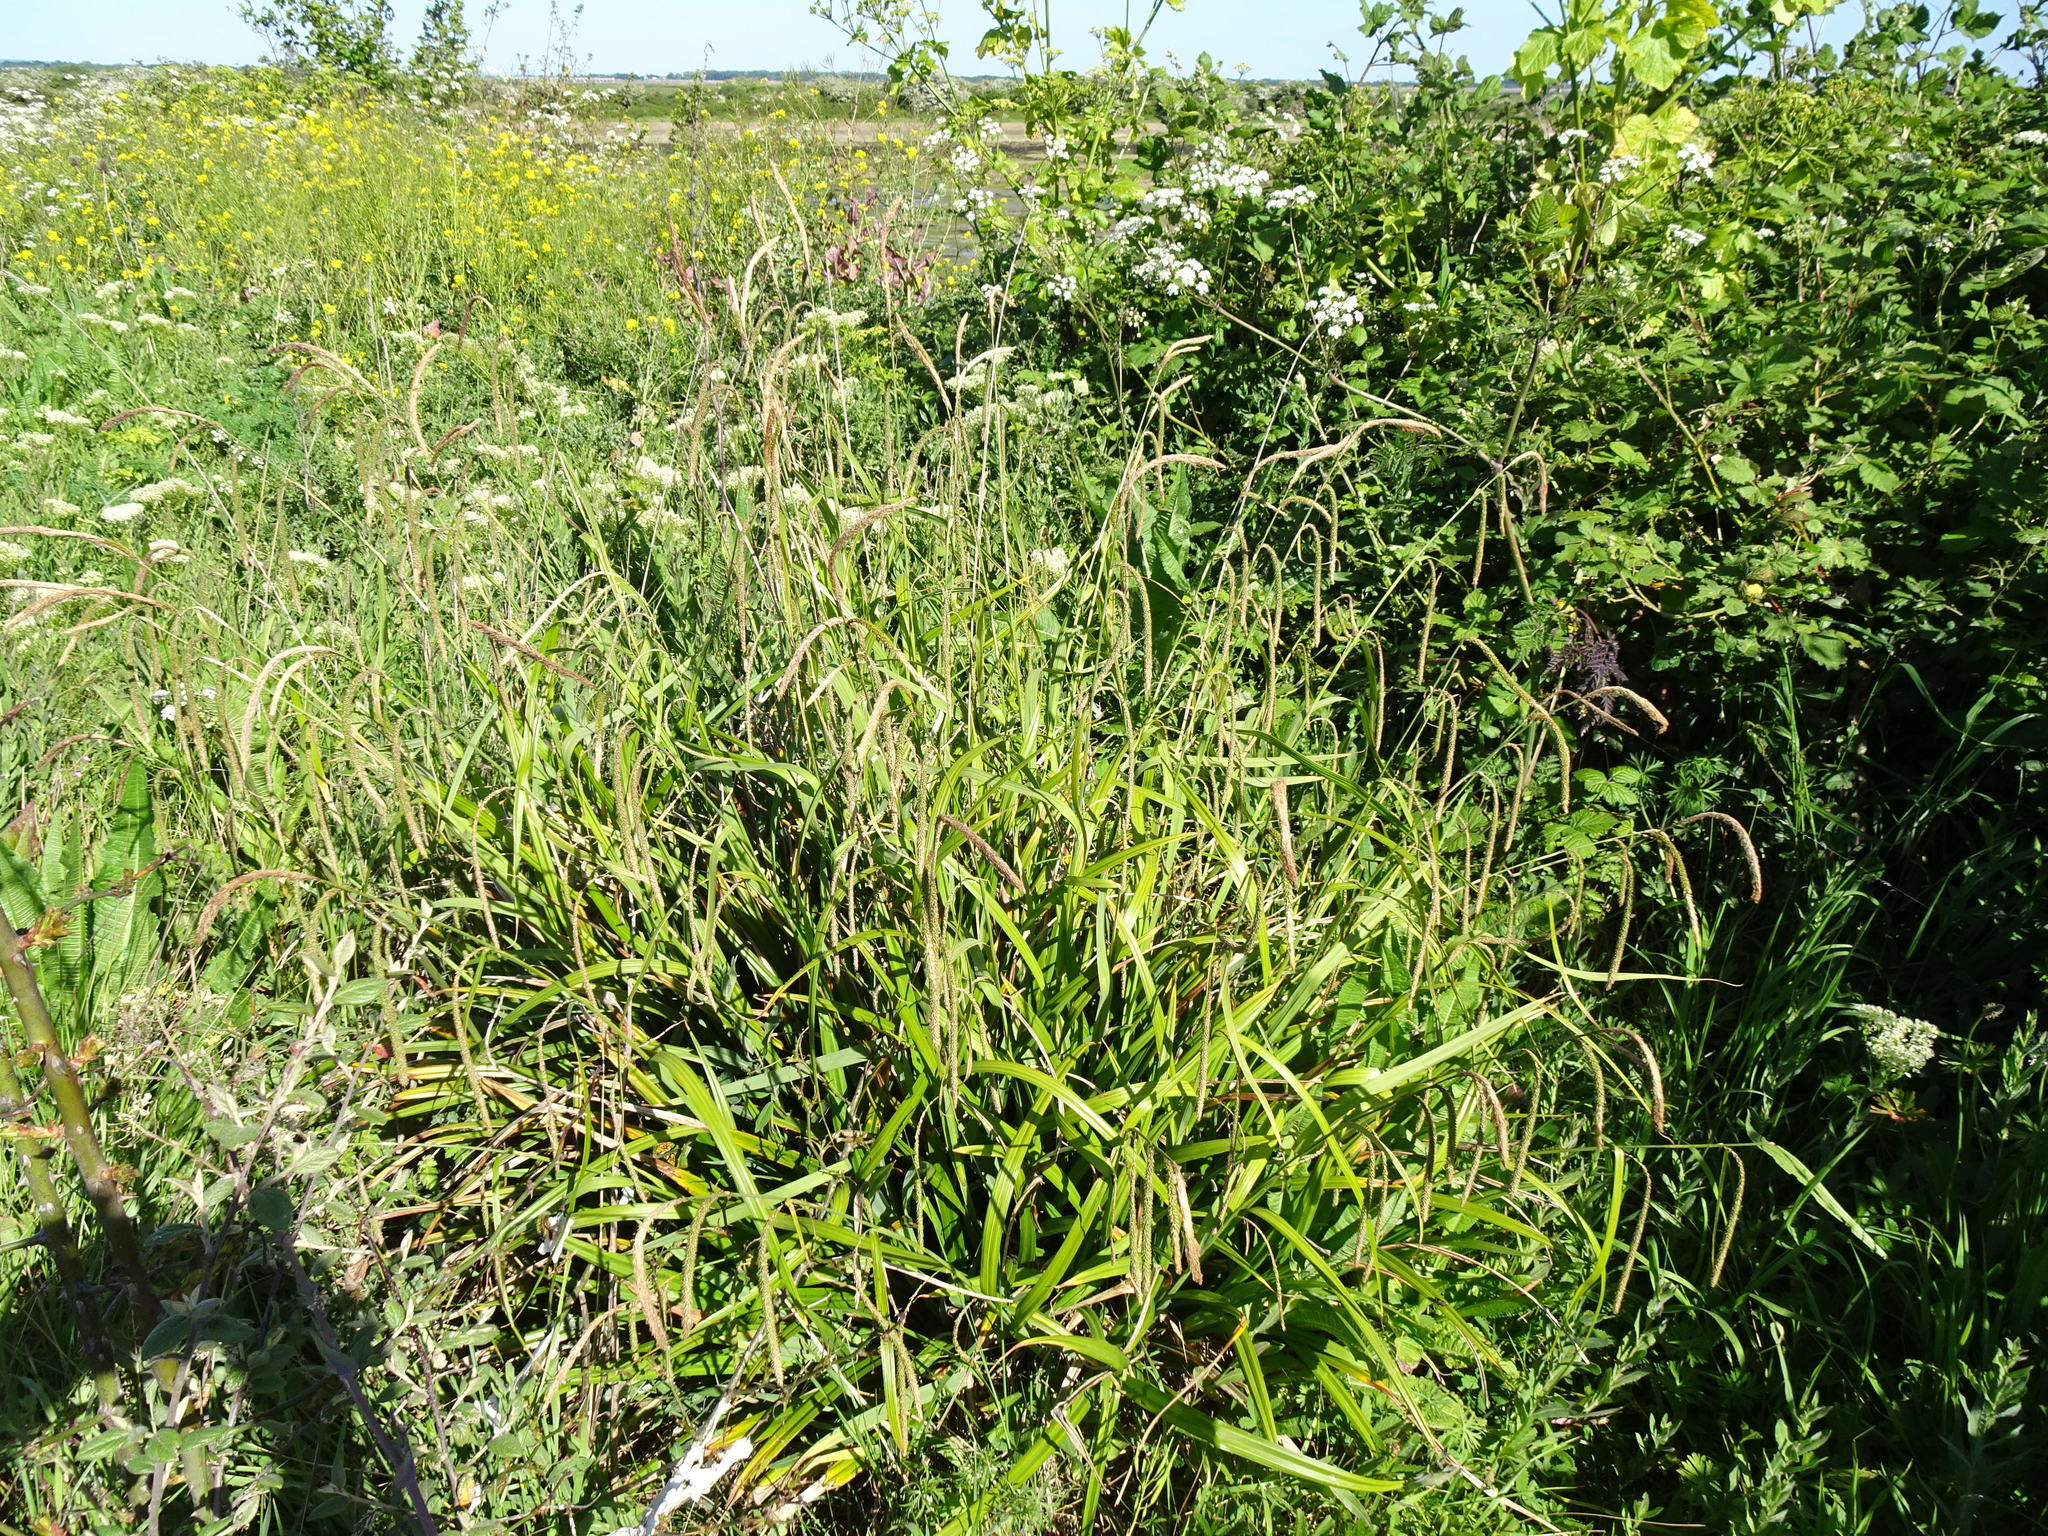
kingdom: Plantae
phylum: Tracheophyta
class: Liliopsida
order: Poales
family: Cyperaceae
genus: Carex
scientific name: Carex pendula
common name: Pendulous sedge
